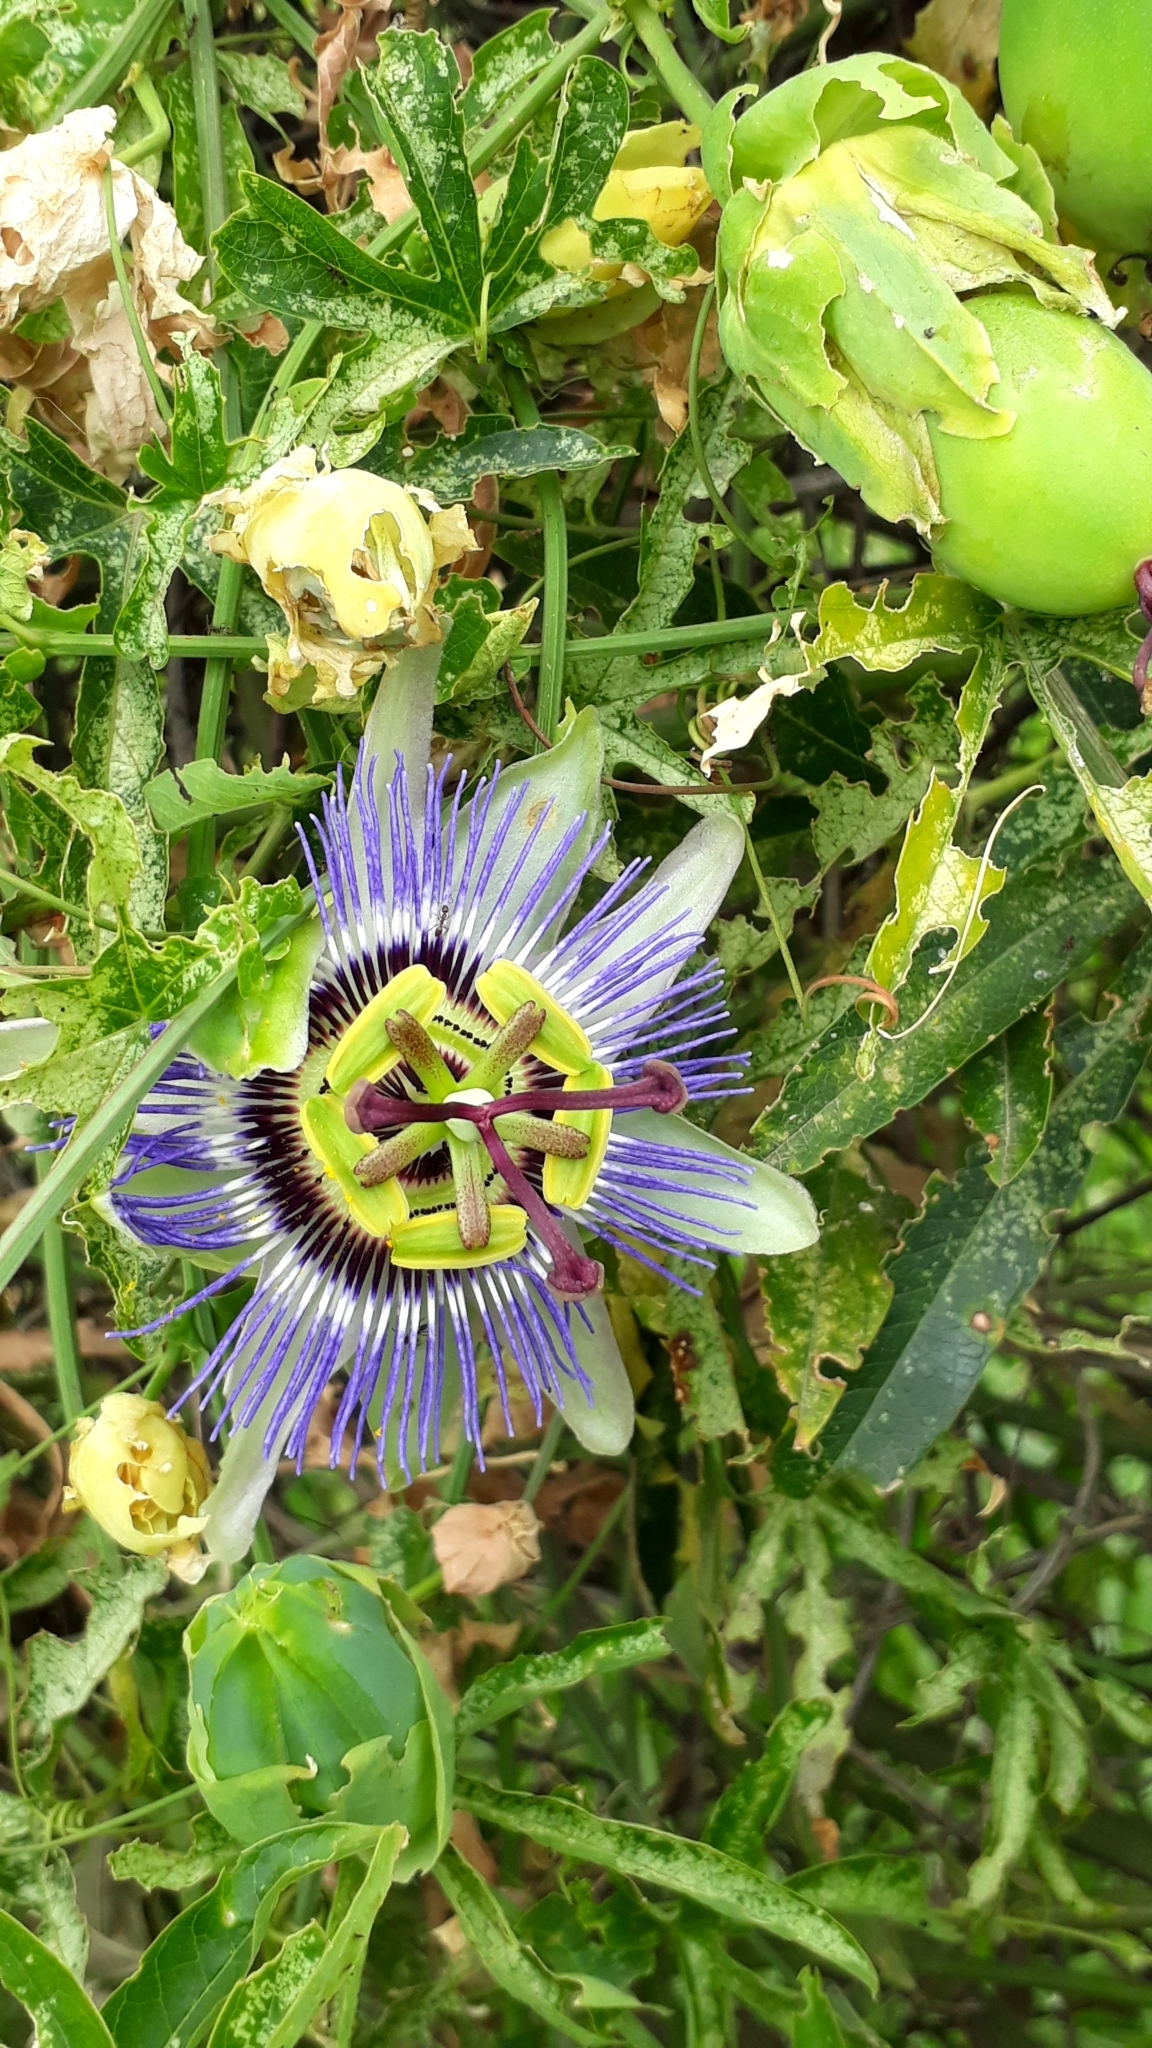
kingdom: Plantae
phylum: Tracheophyta
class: Magnoliopsida
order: Malpighiales
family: Passifloraceae
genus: Passiflora
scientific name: Passiflora caerulea
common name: Blue passionflower
